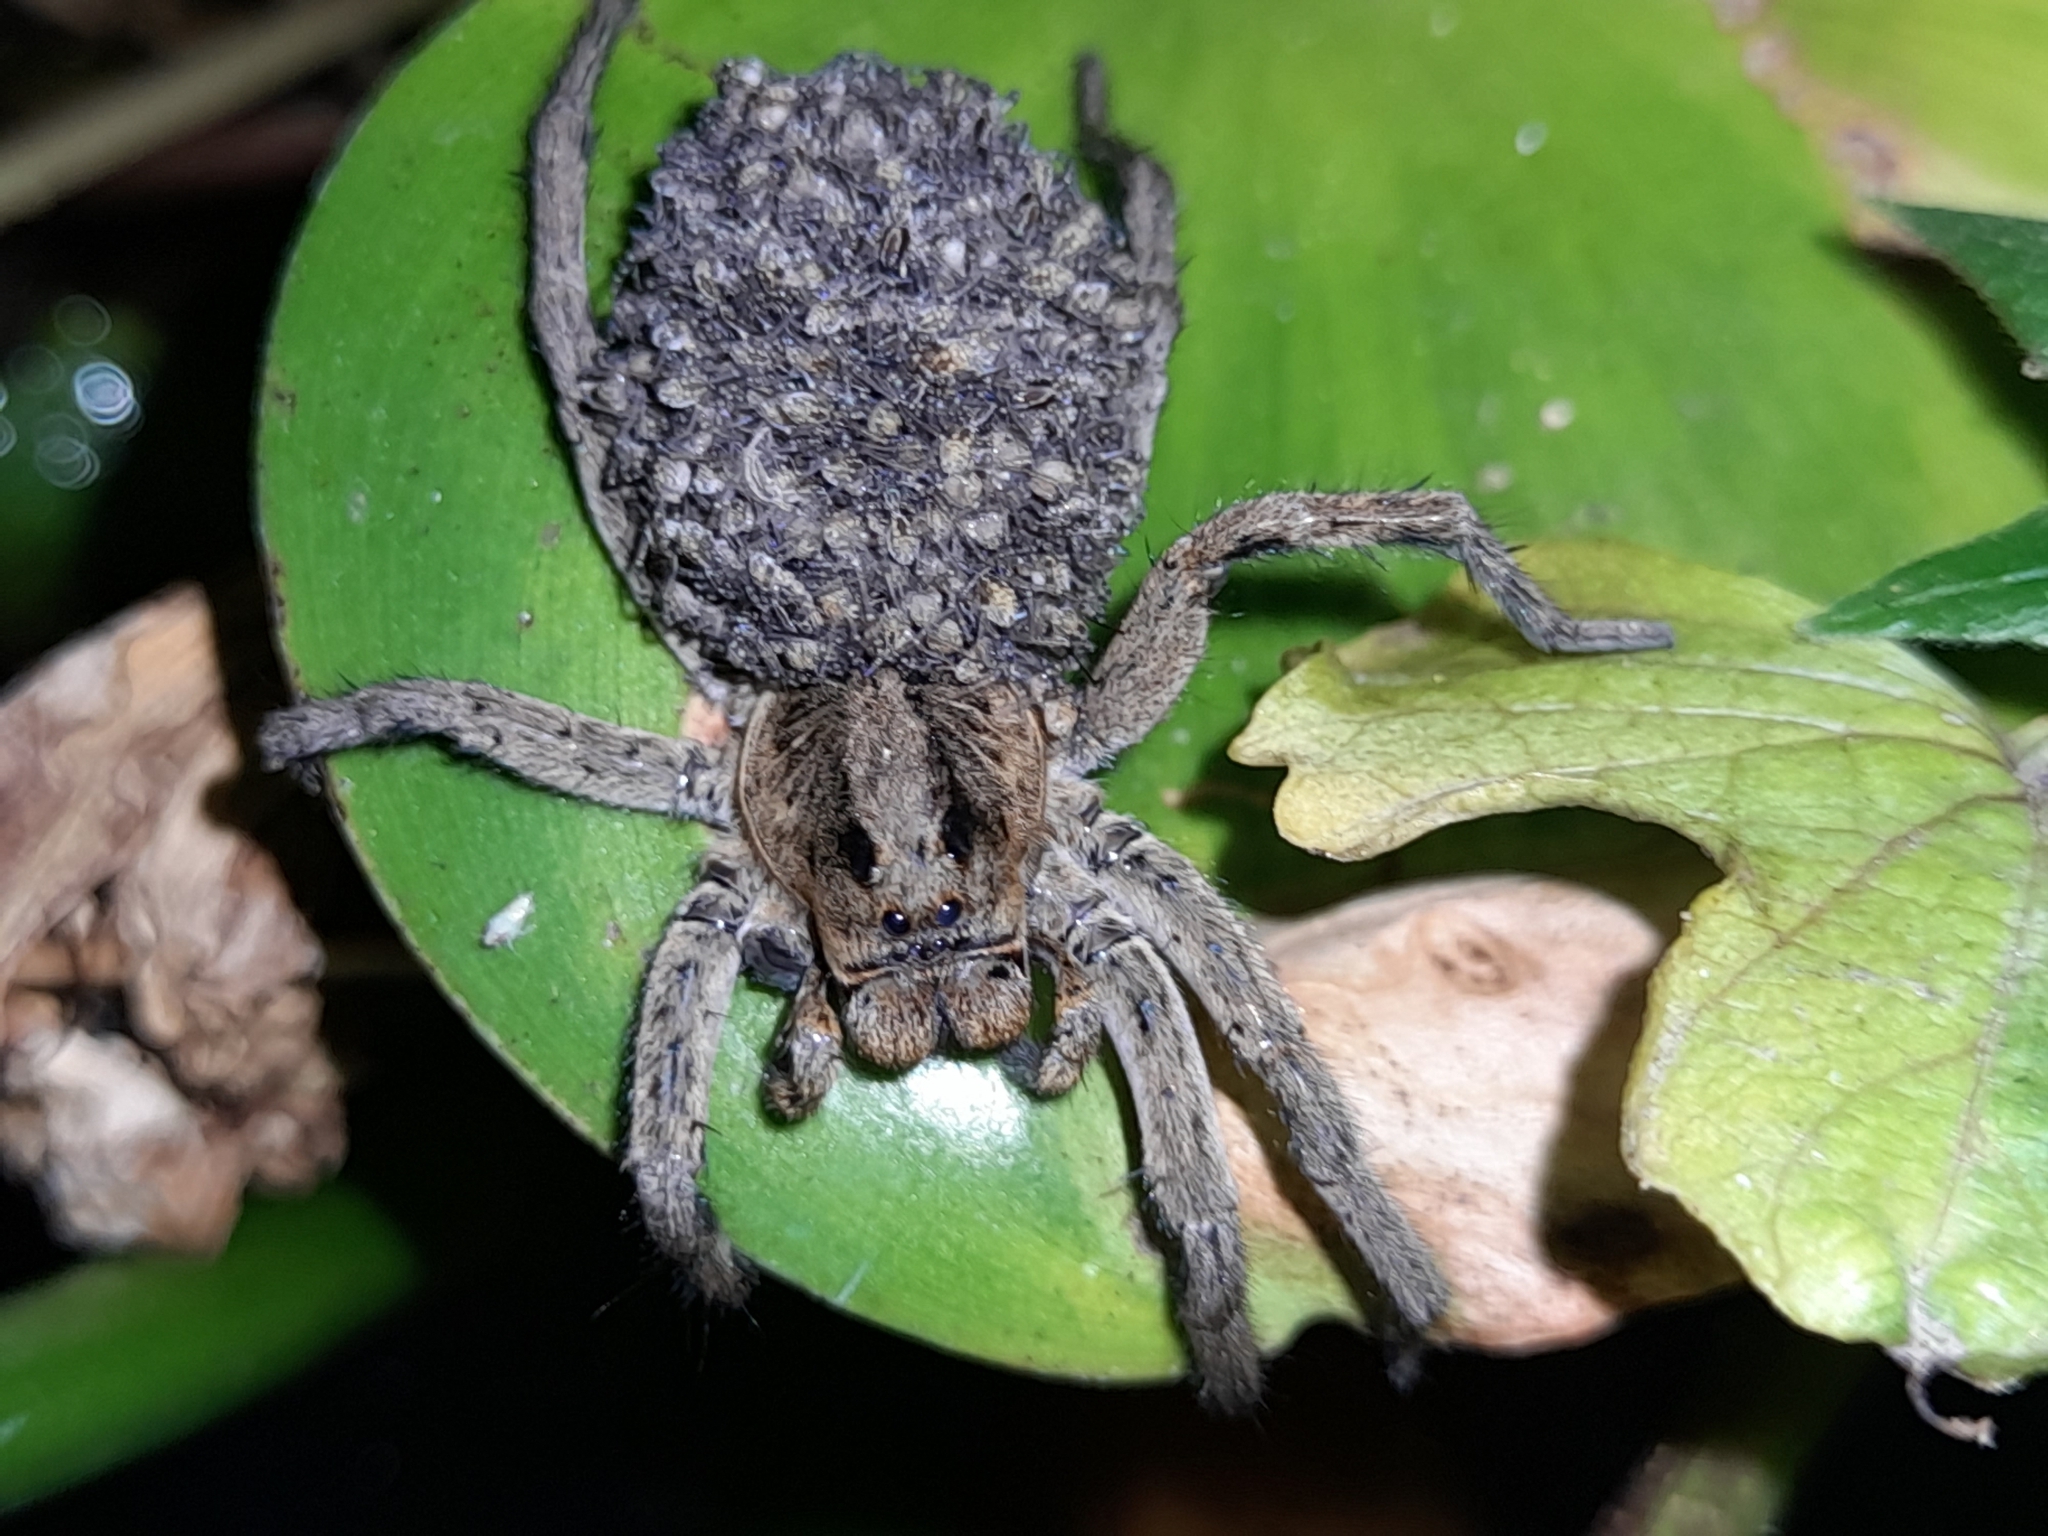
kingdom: Animalia
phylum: Arthropoda
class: Arachnida
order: Araneae
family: Lycosidae
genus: Lycosa
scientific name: Lycosa erythrognatha
